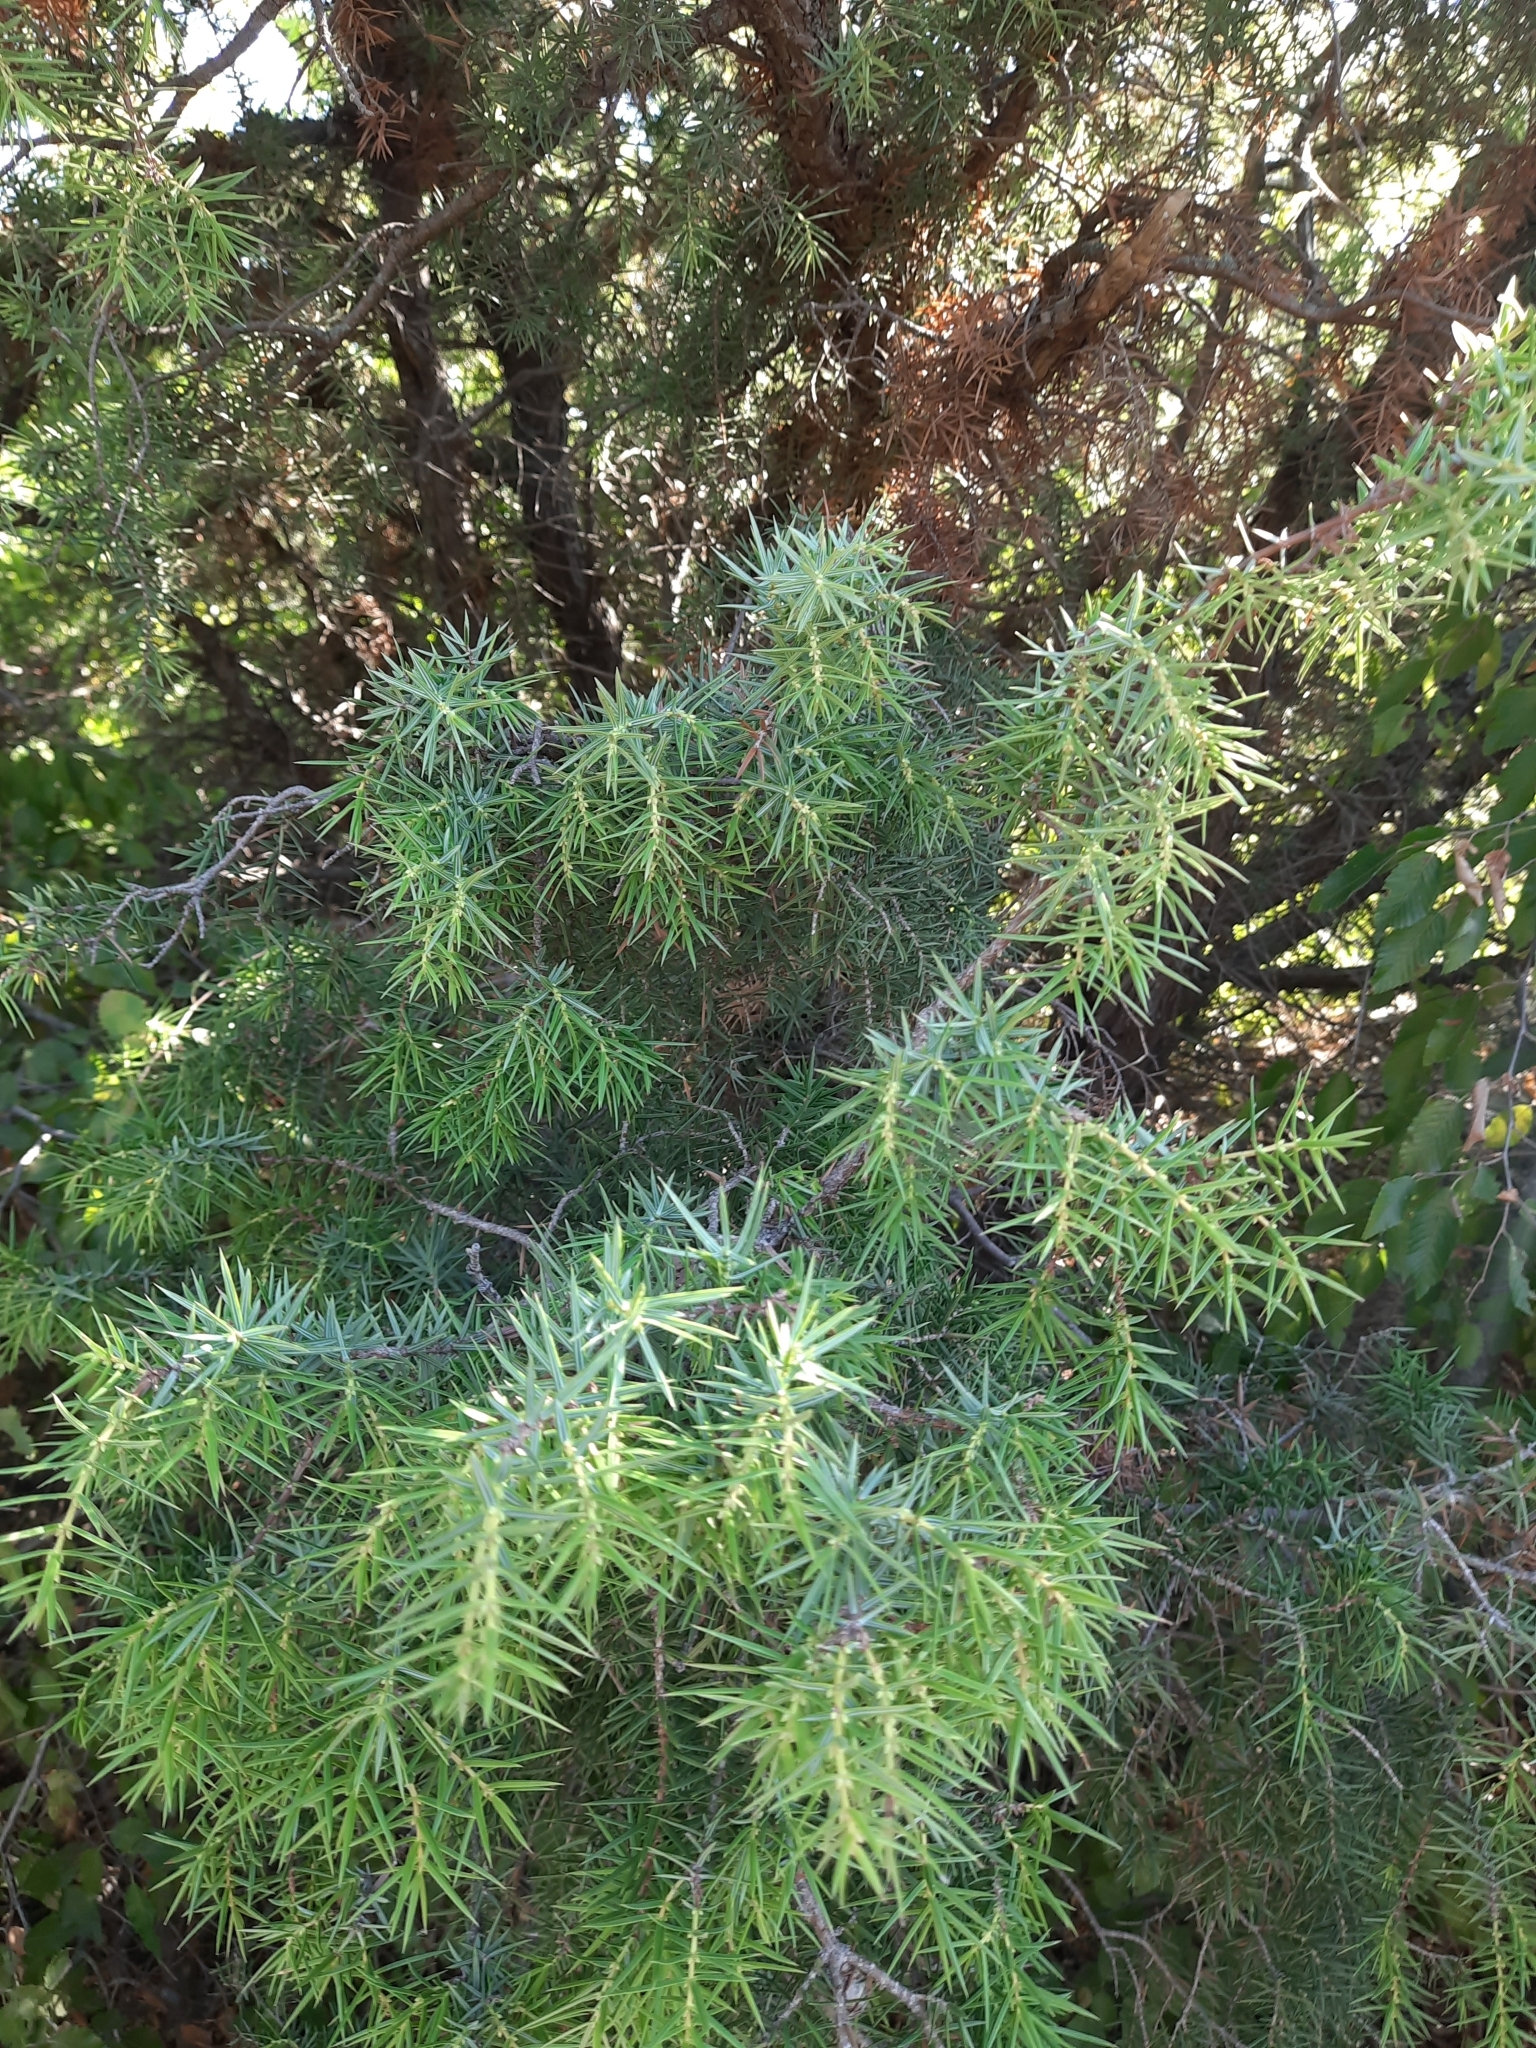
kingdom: Plantae
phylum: Tracheophyta
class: Pinopsida
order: Pinales
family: Cupressaceae
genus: Juniperus
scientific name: Juniperus oxycedrus
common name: Prickly juniper
